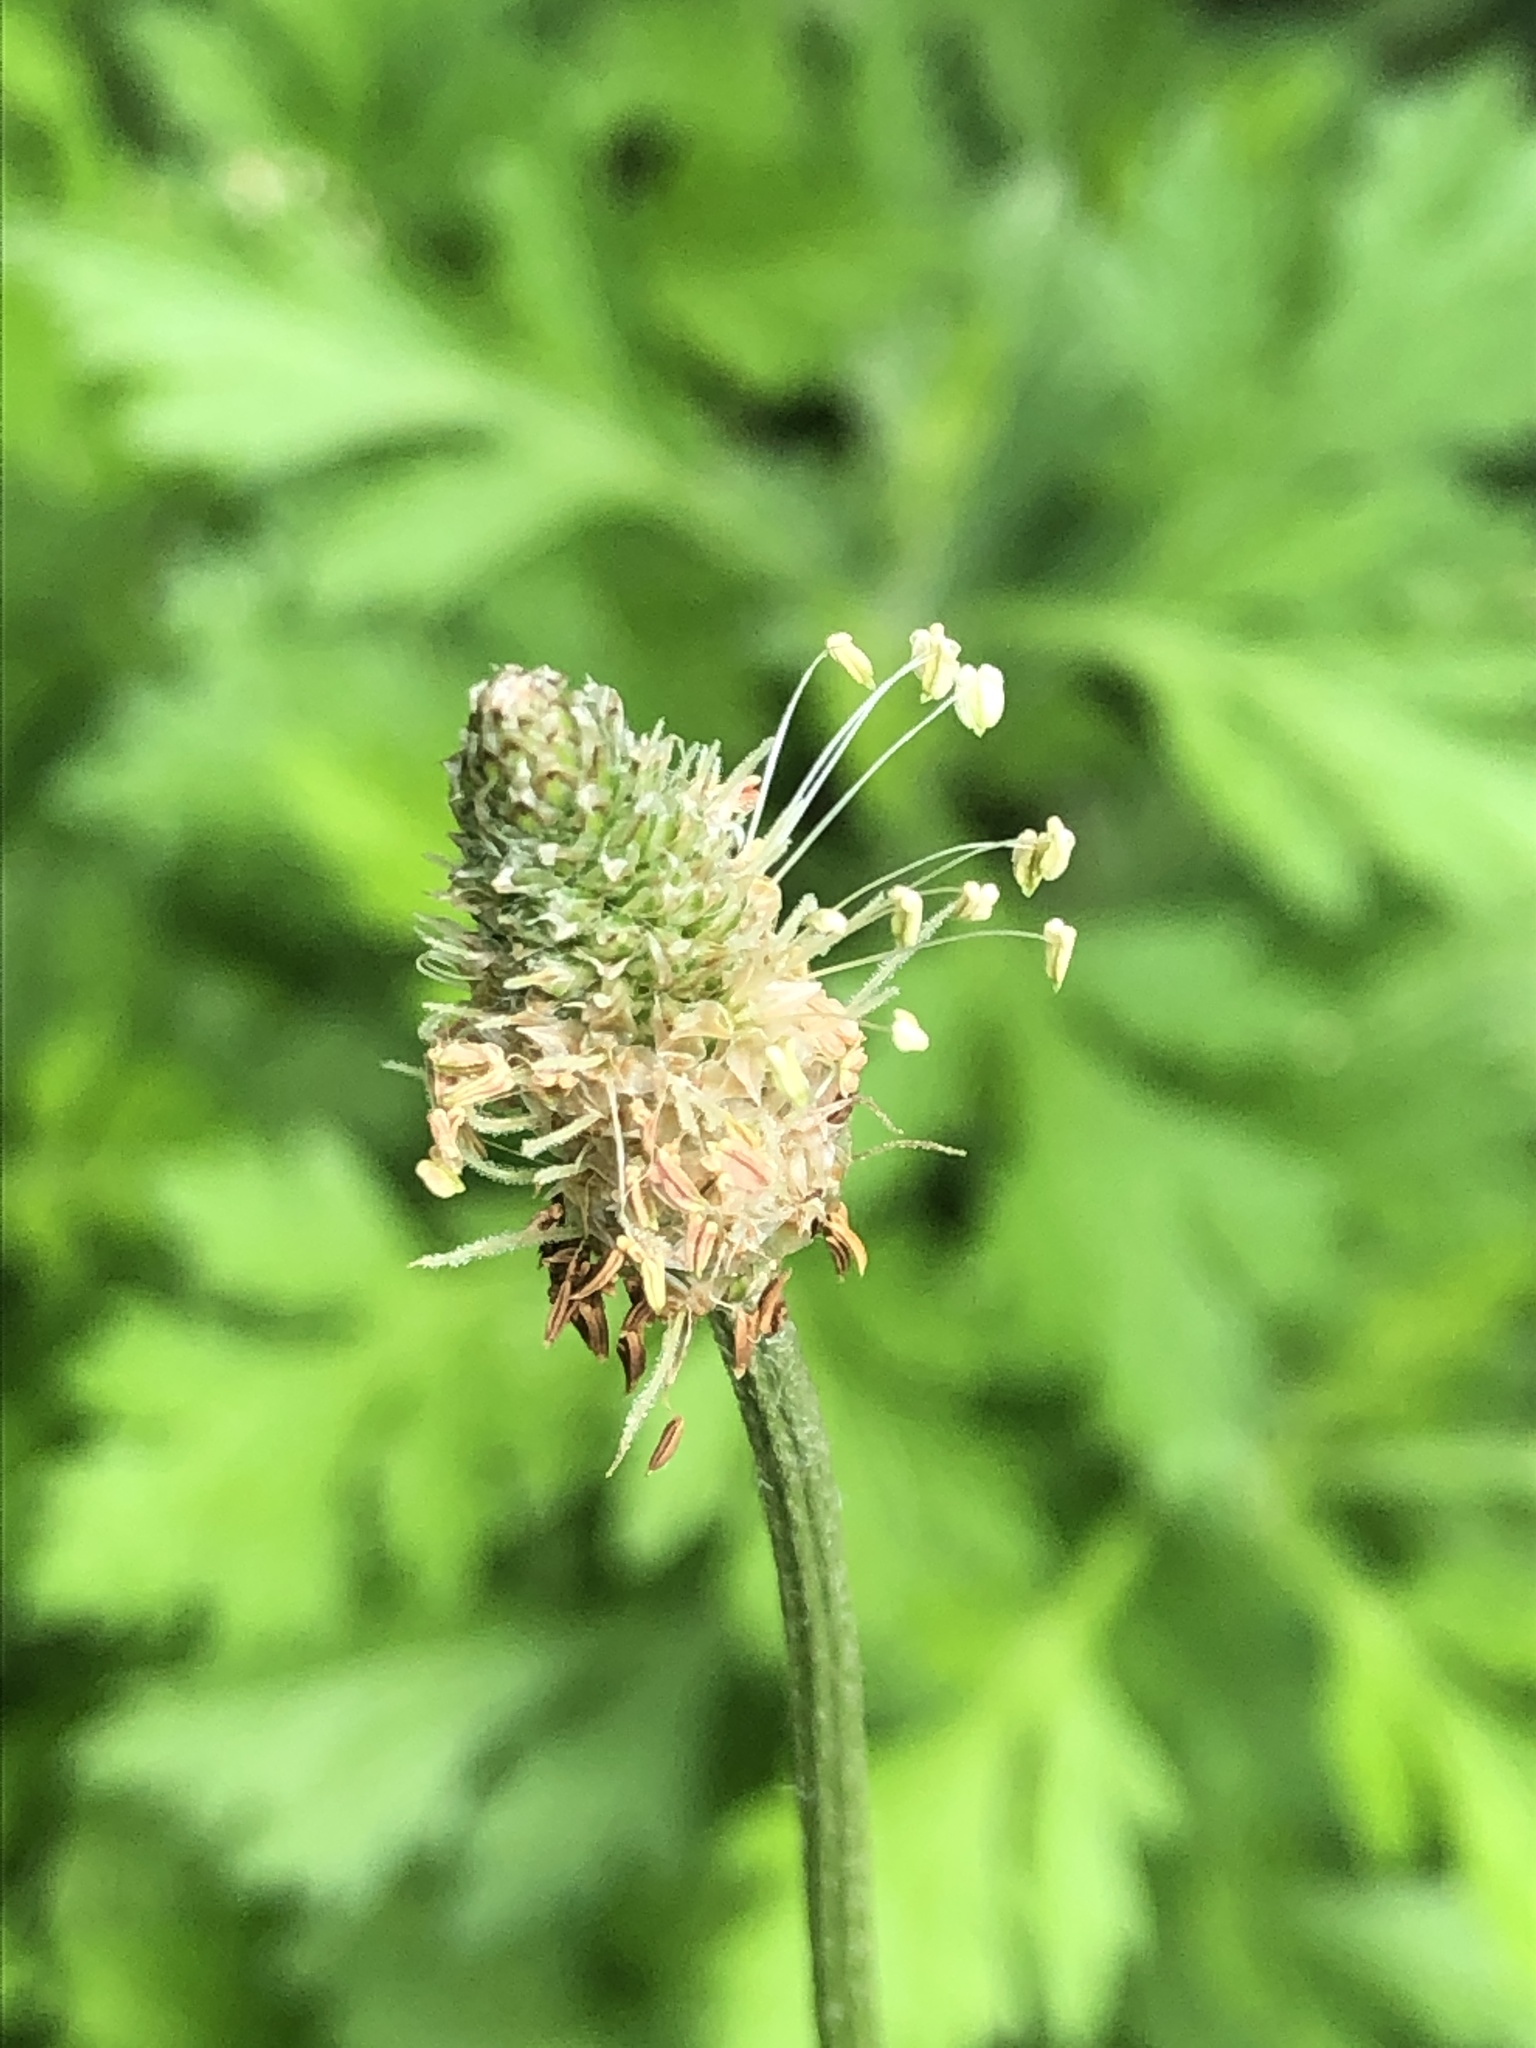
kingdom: Plantae
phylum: Tracheophyta
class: Magnoliopsida
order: Lamiales
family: Plantaginaceae
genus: Plantago
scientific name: Plantago lanceolata
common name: Ribwort plantain
